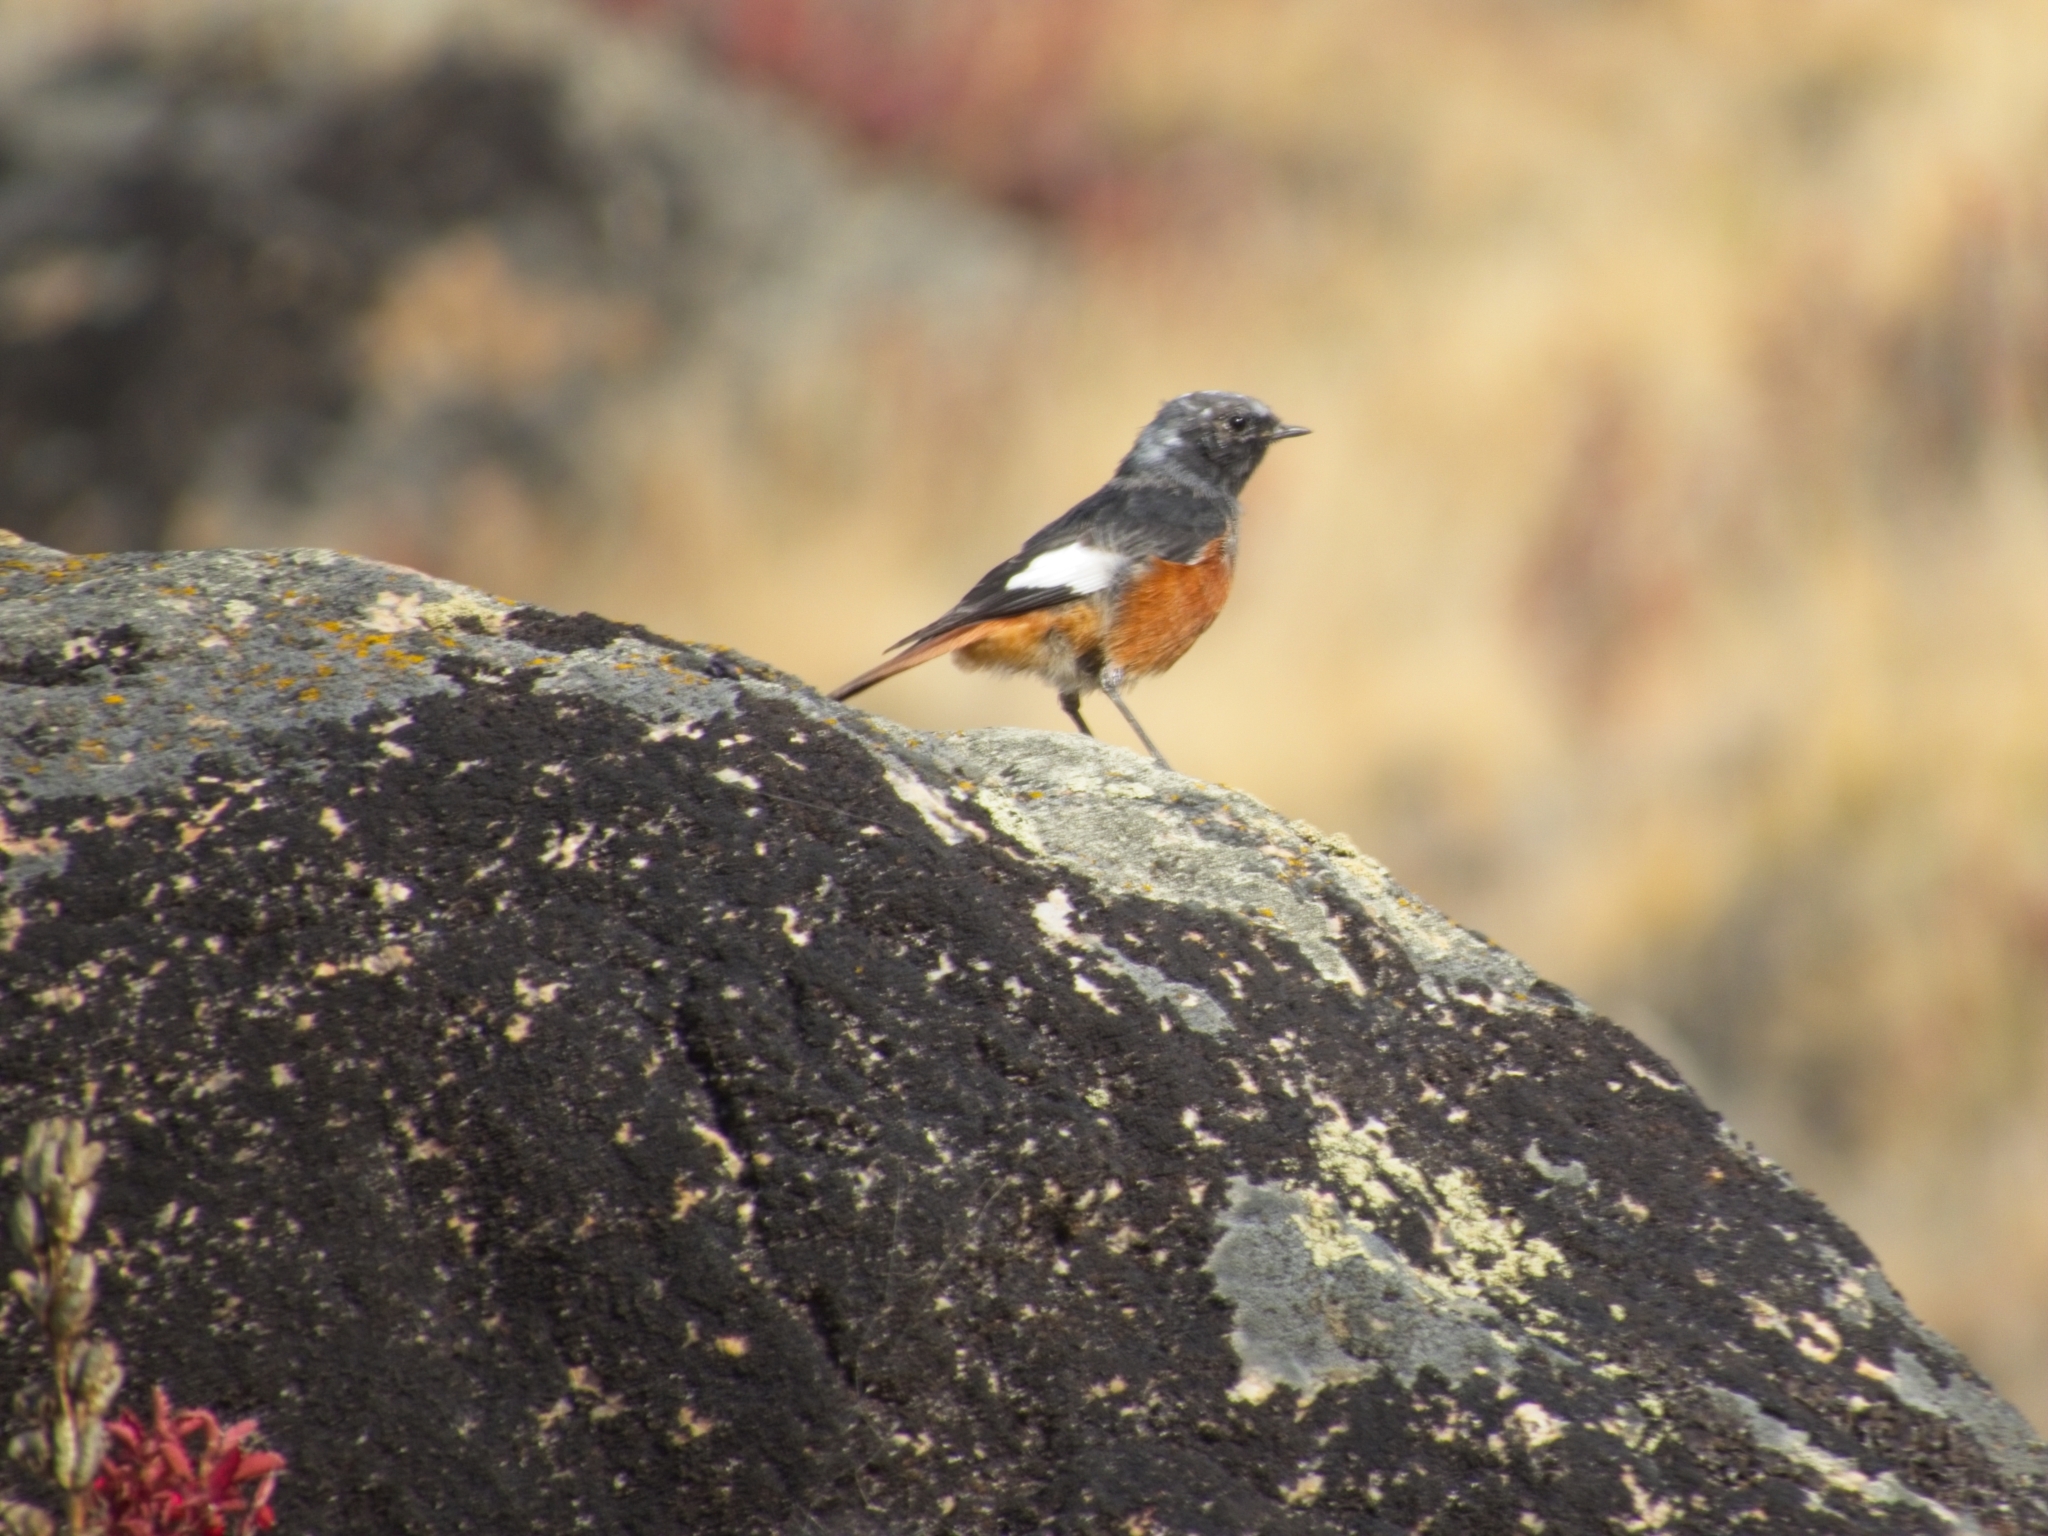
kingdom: Animalia
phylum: Chordata
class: Aves
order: Passeriformes
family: Muscicapidae
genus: Phoenicurus
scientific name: Phoenicurus erythrogastrus
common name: Güldenstädt's redstart
